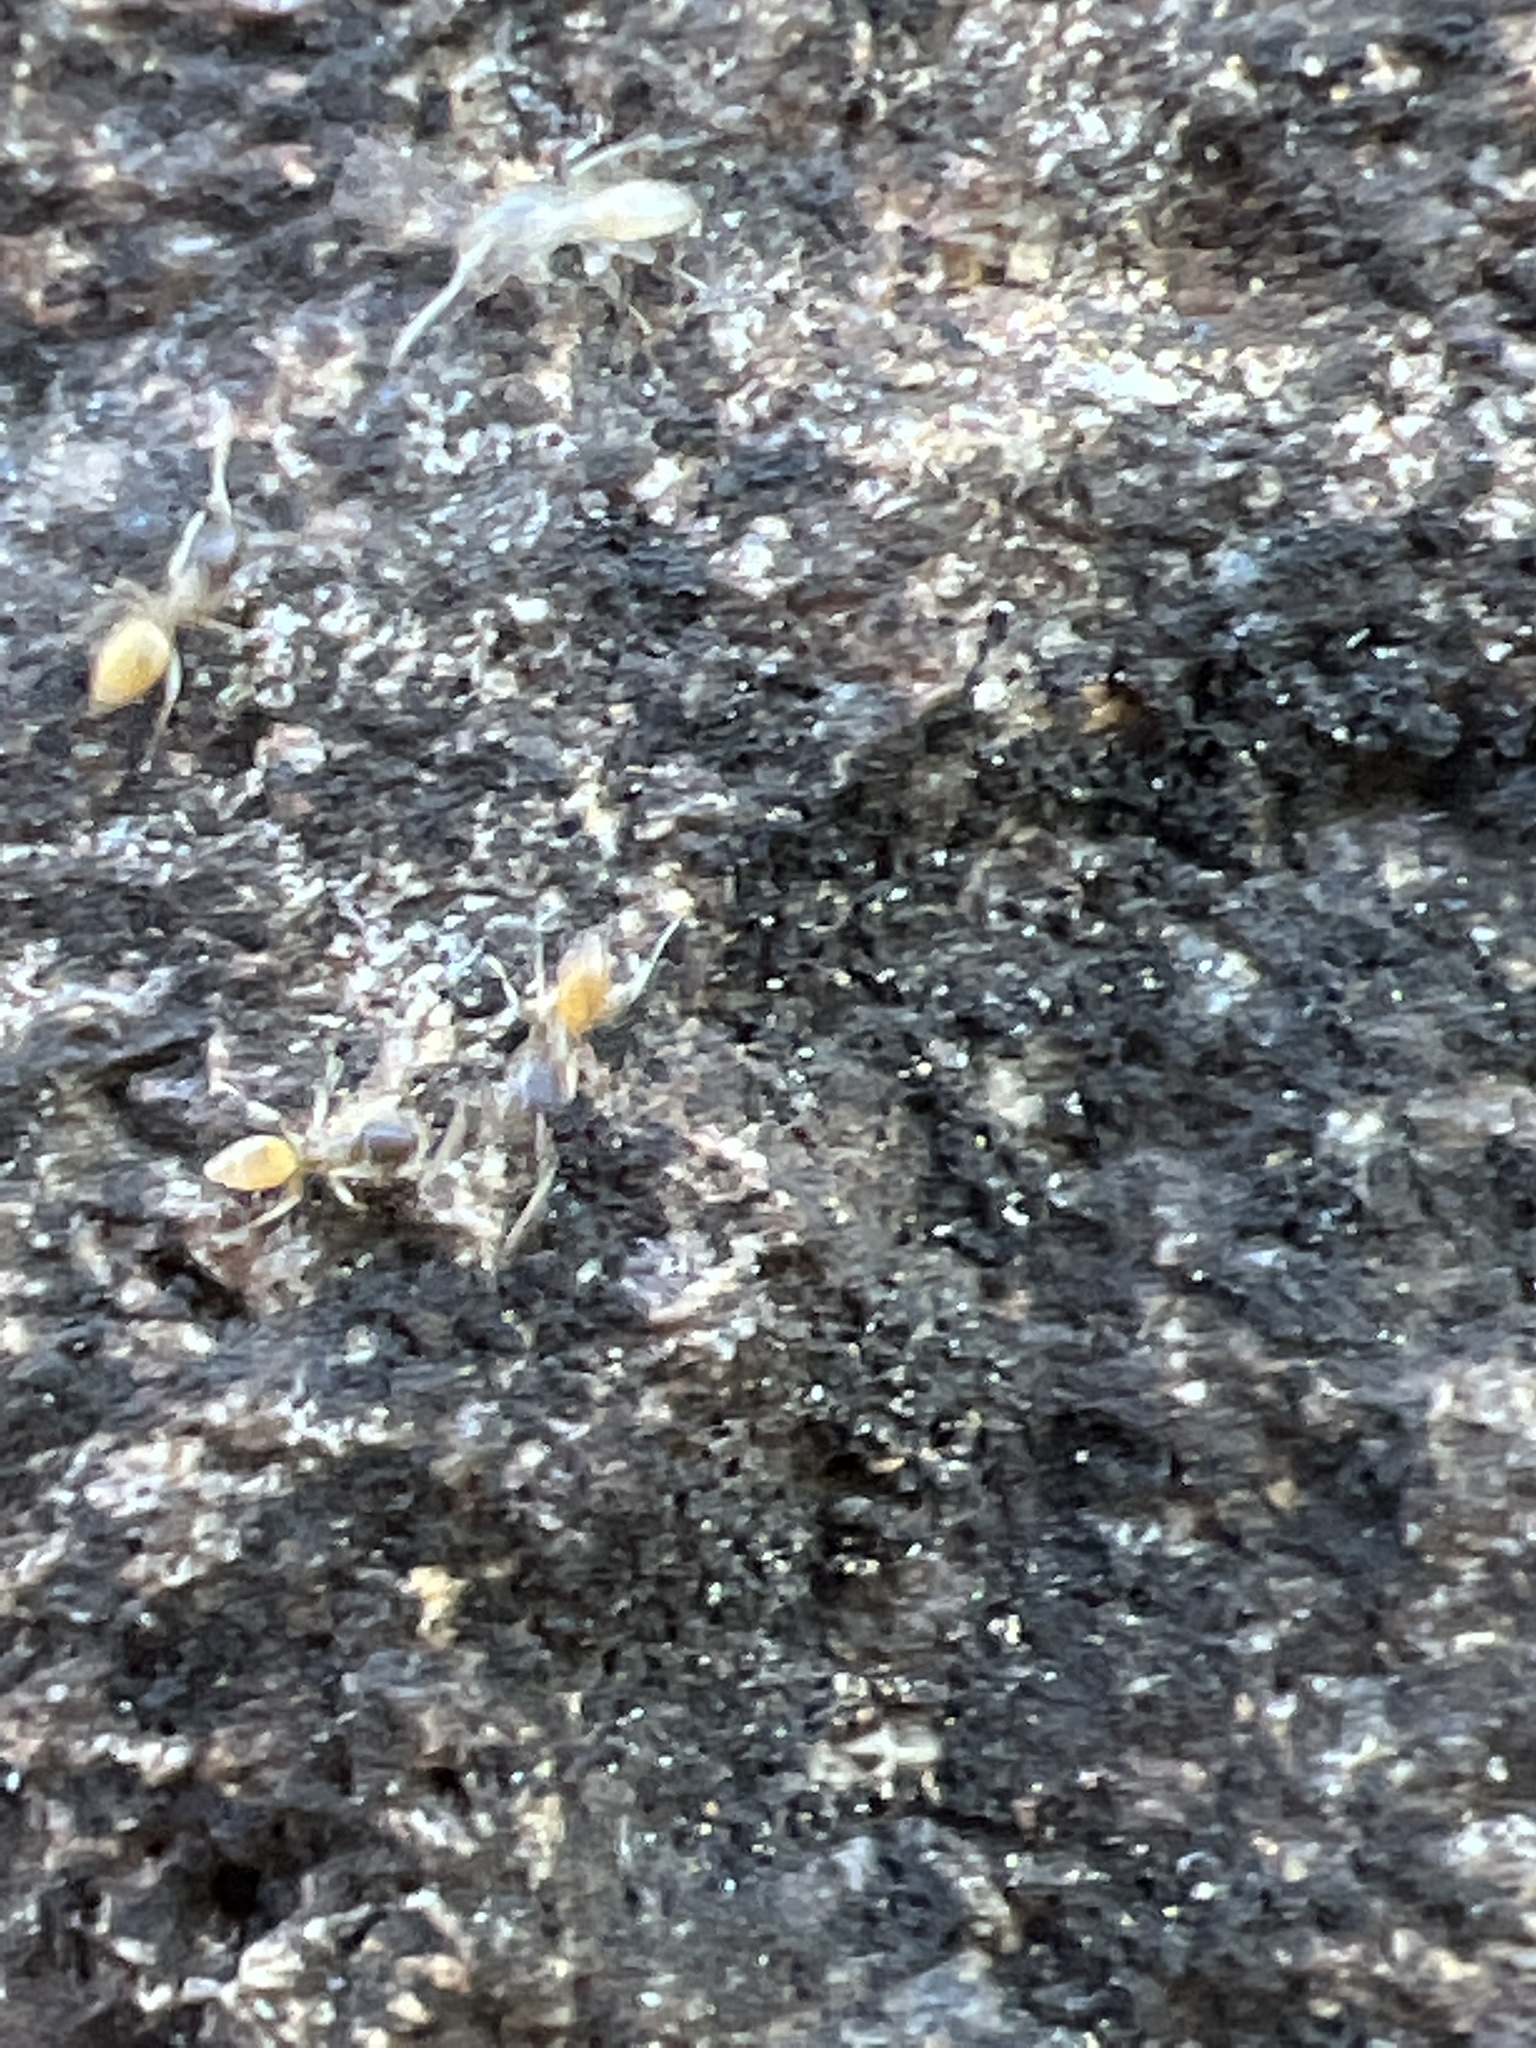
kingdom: Animalia
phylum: Arthropoda
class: Insecta
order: Hymenoptera
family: Formicidae
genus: Tapinoma
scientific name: Tapinoma melanocephalum
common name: Ghost ant
